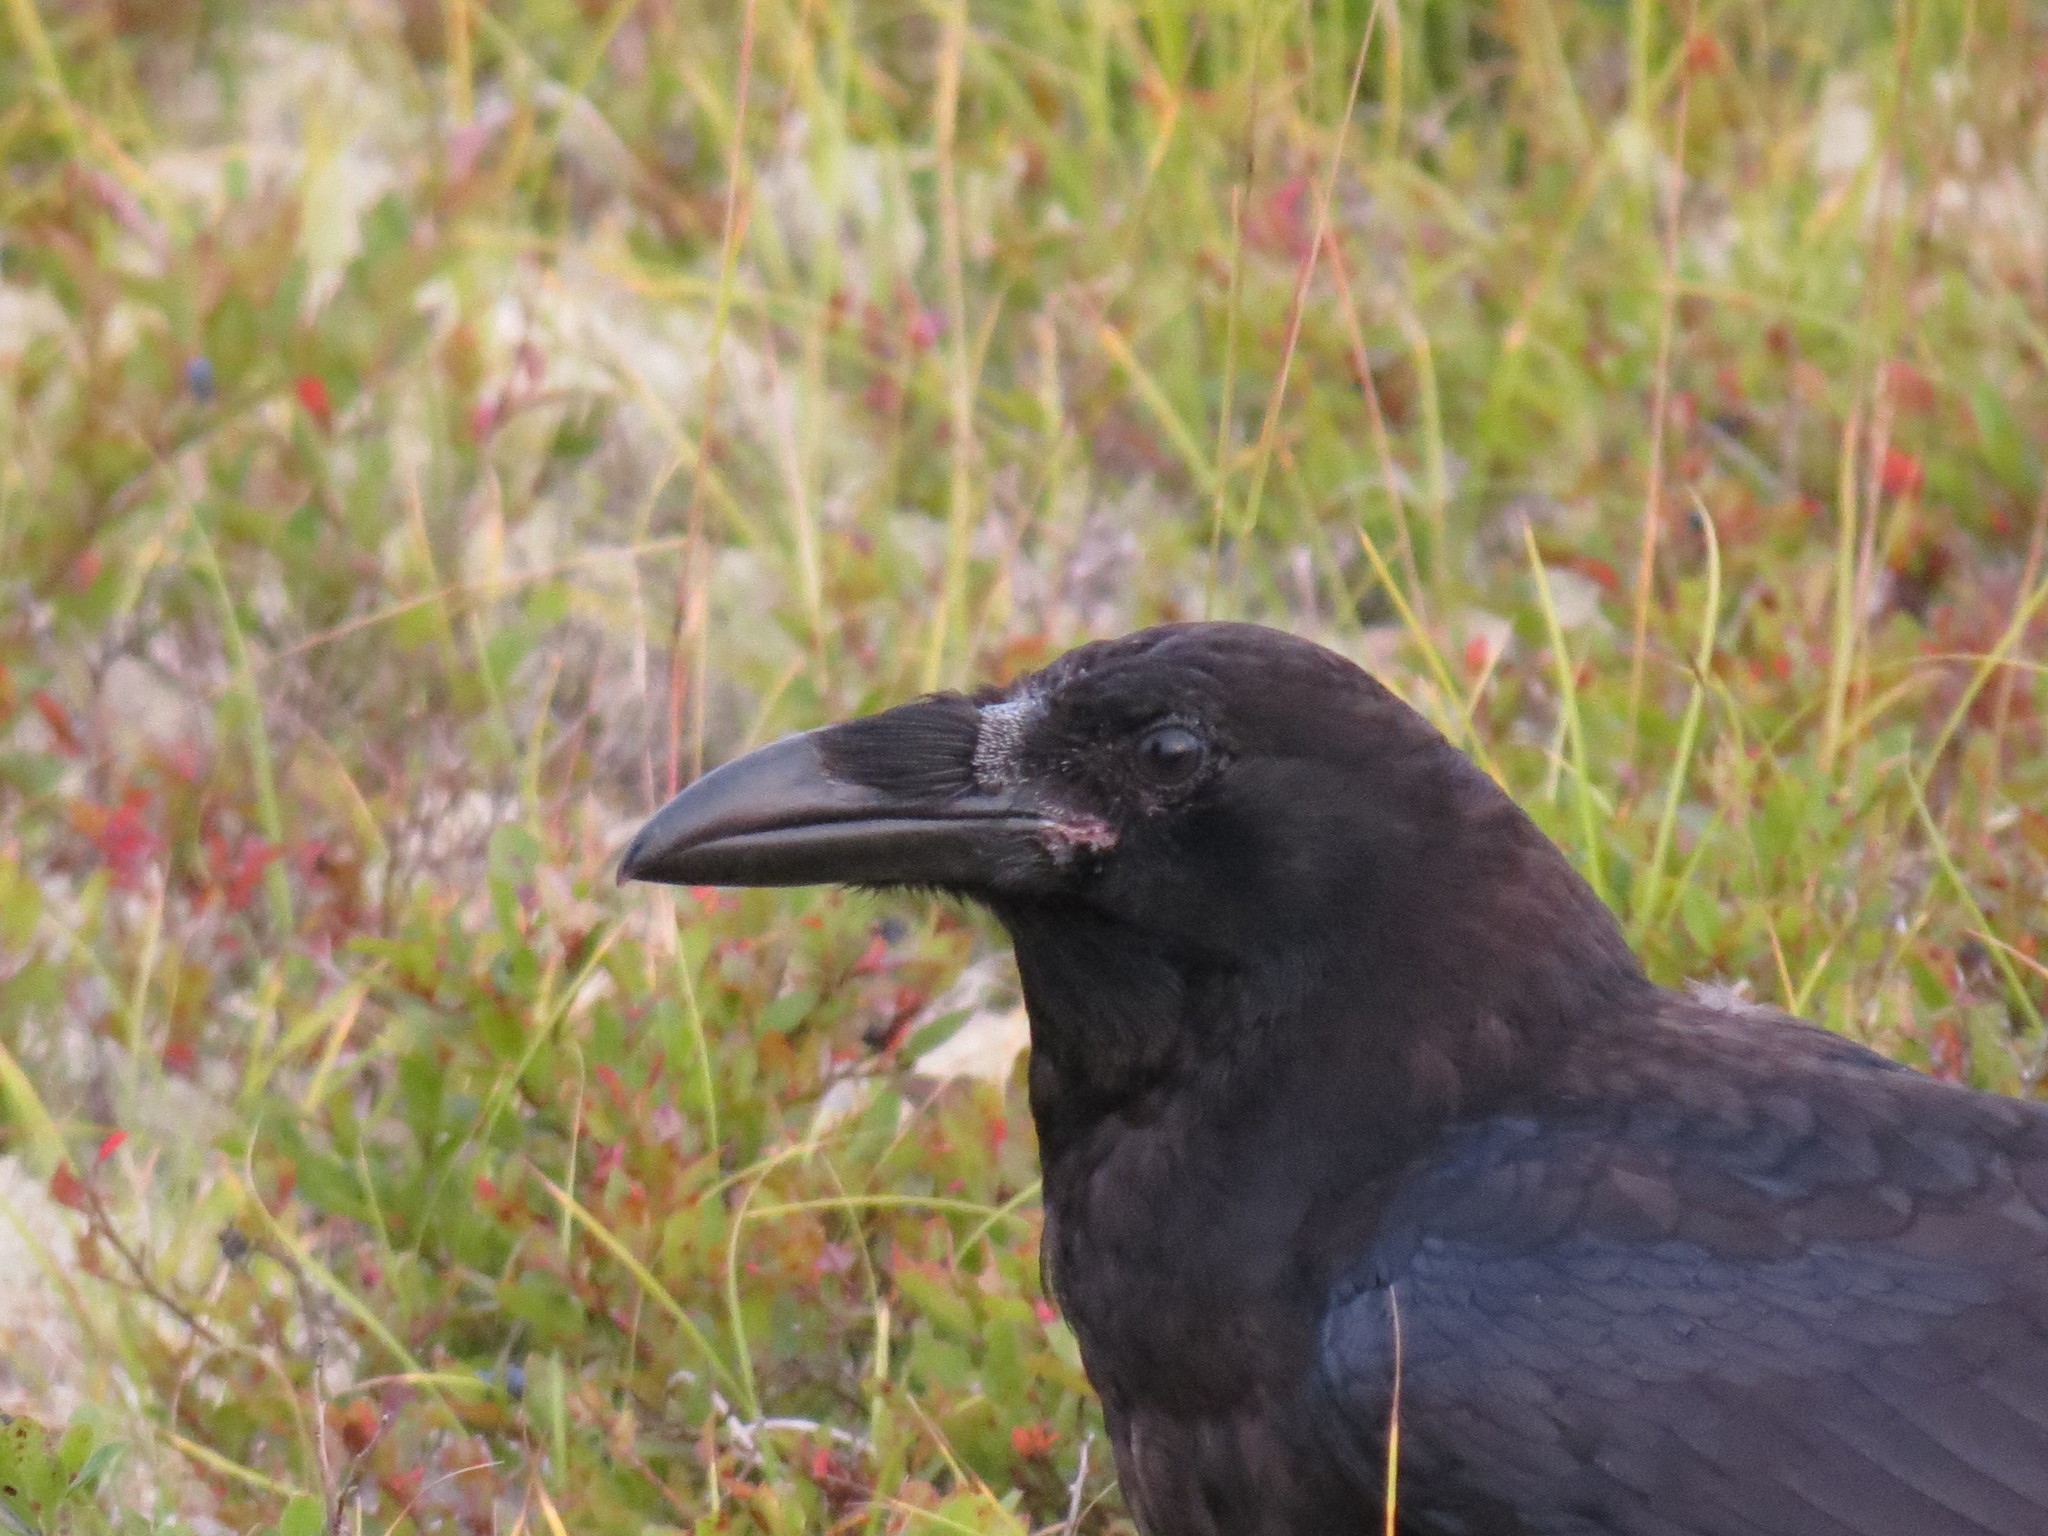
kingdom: Animalia
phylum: Chordata
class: Aves
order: Passeriformes
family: Corvidae
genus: Corvus
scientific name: Corvus corax
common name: Common raven
